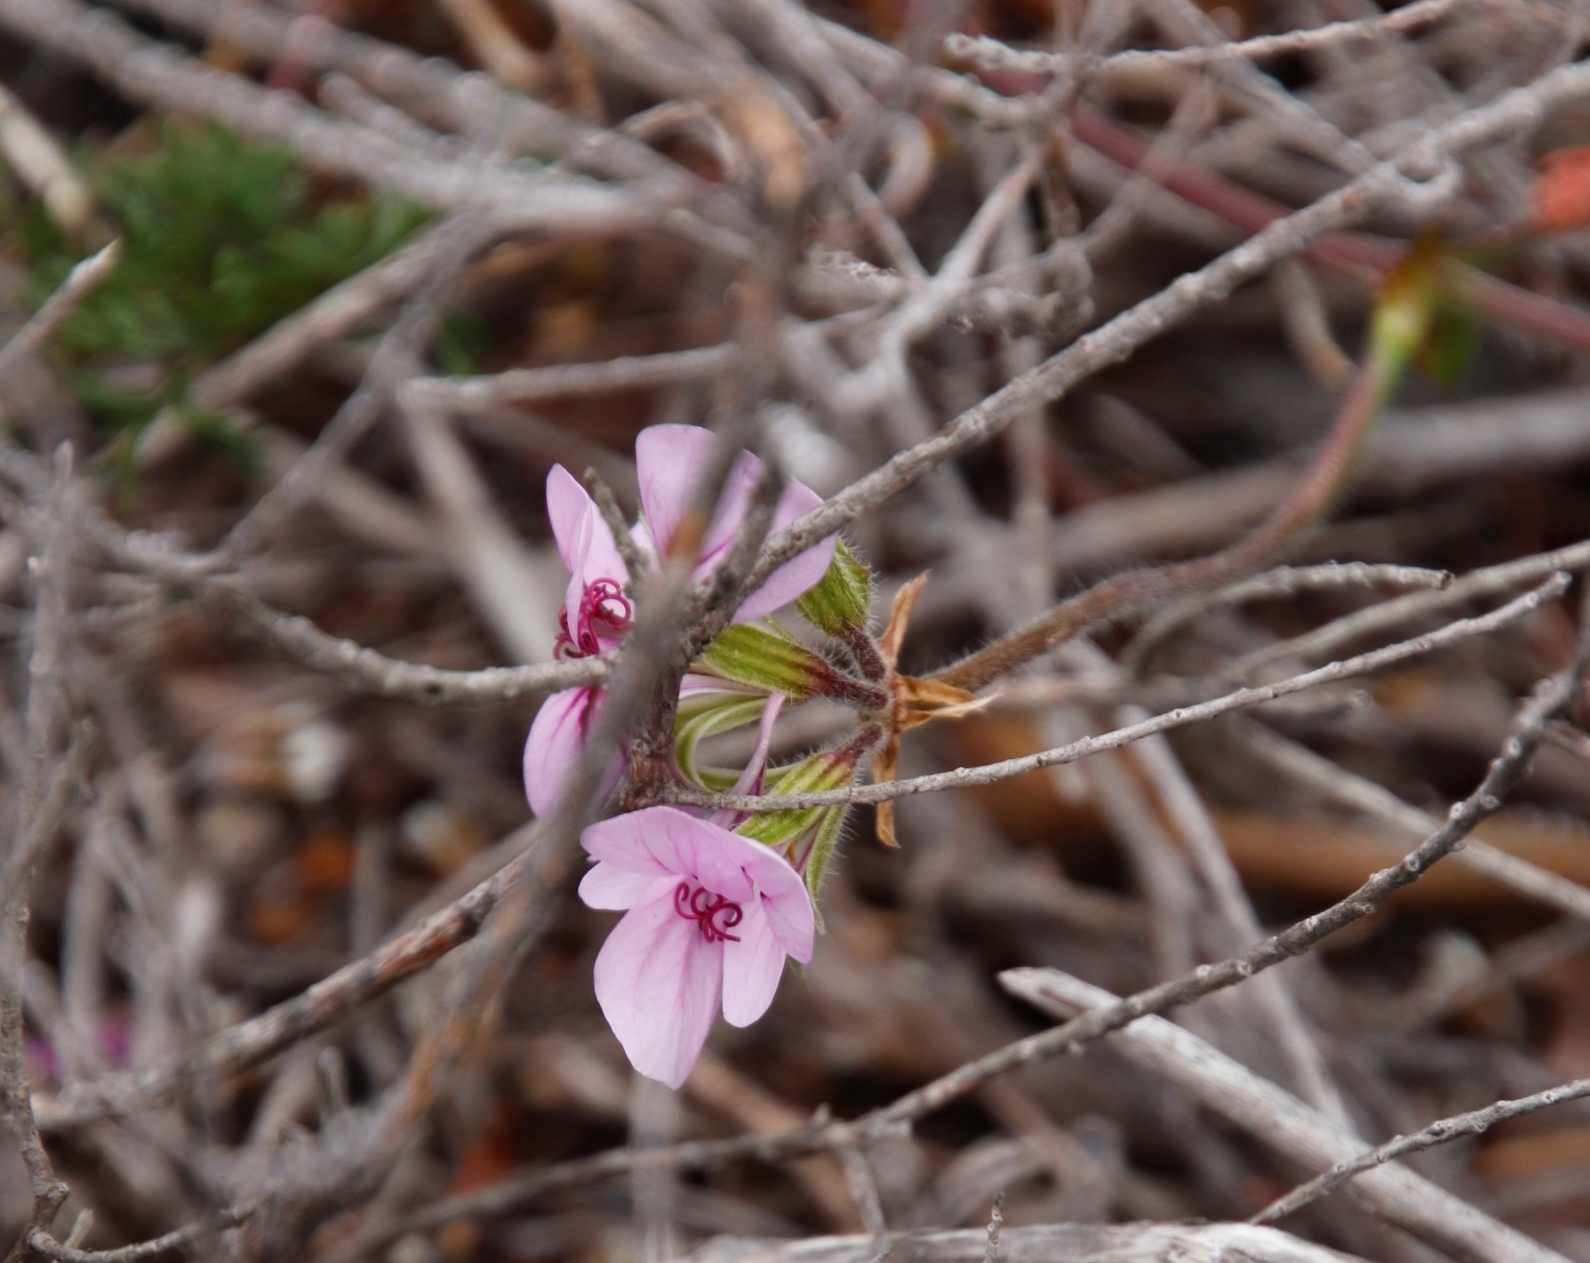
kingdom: Plantae
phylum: Tracheophyta
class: Magnoliopsida
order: Geraniales
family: Geraniaceae
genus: Pelargonium
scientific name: Pelargonium myrrhifolium
